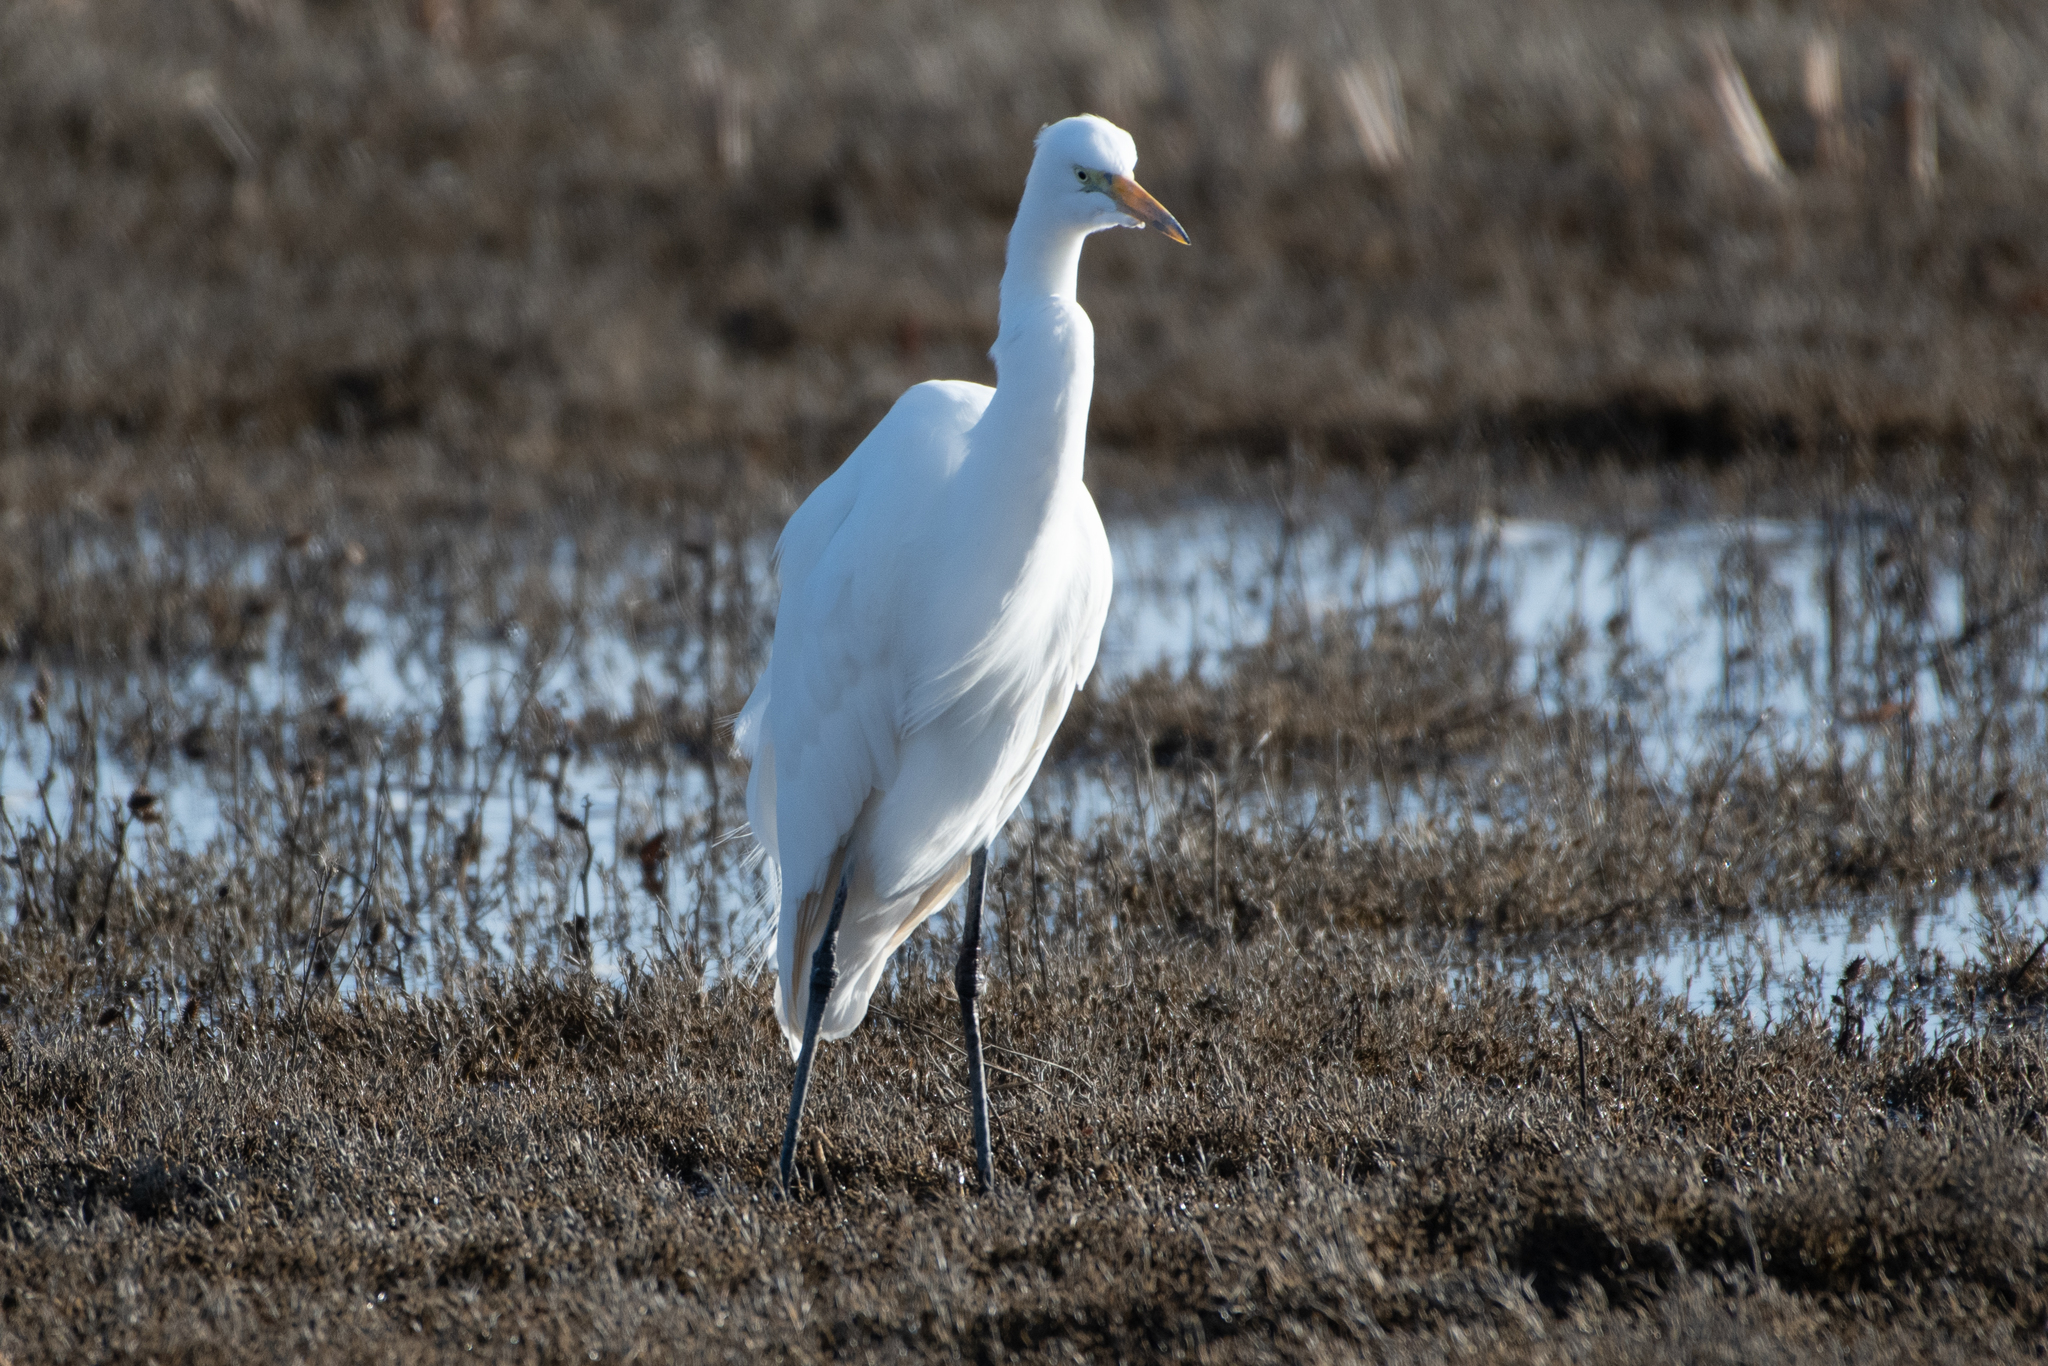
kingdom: Animalia
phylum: Chordata
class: Aves
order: Pelecaniformes
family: Ardeidae
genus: Ardea
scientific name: Ardea alba
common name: Great egret
